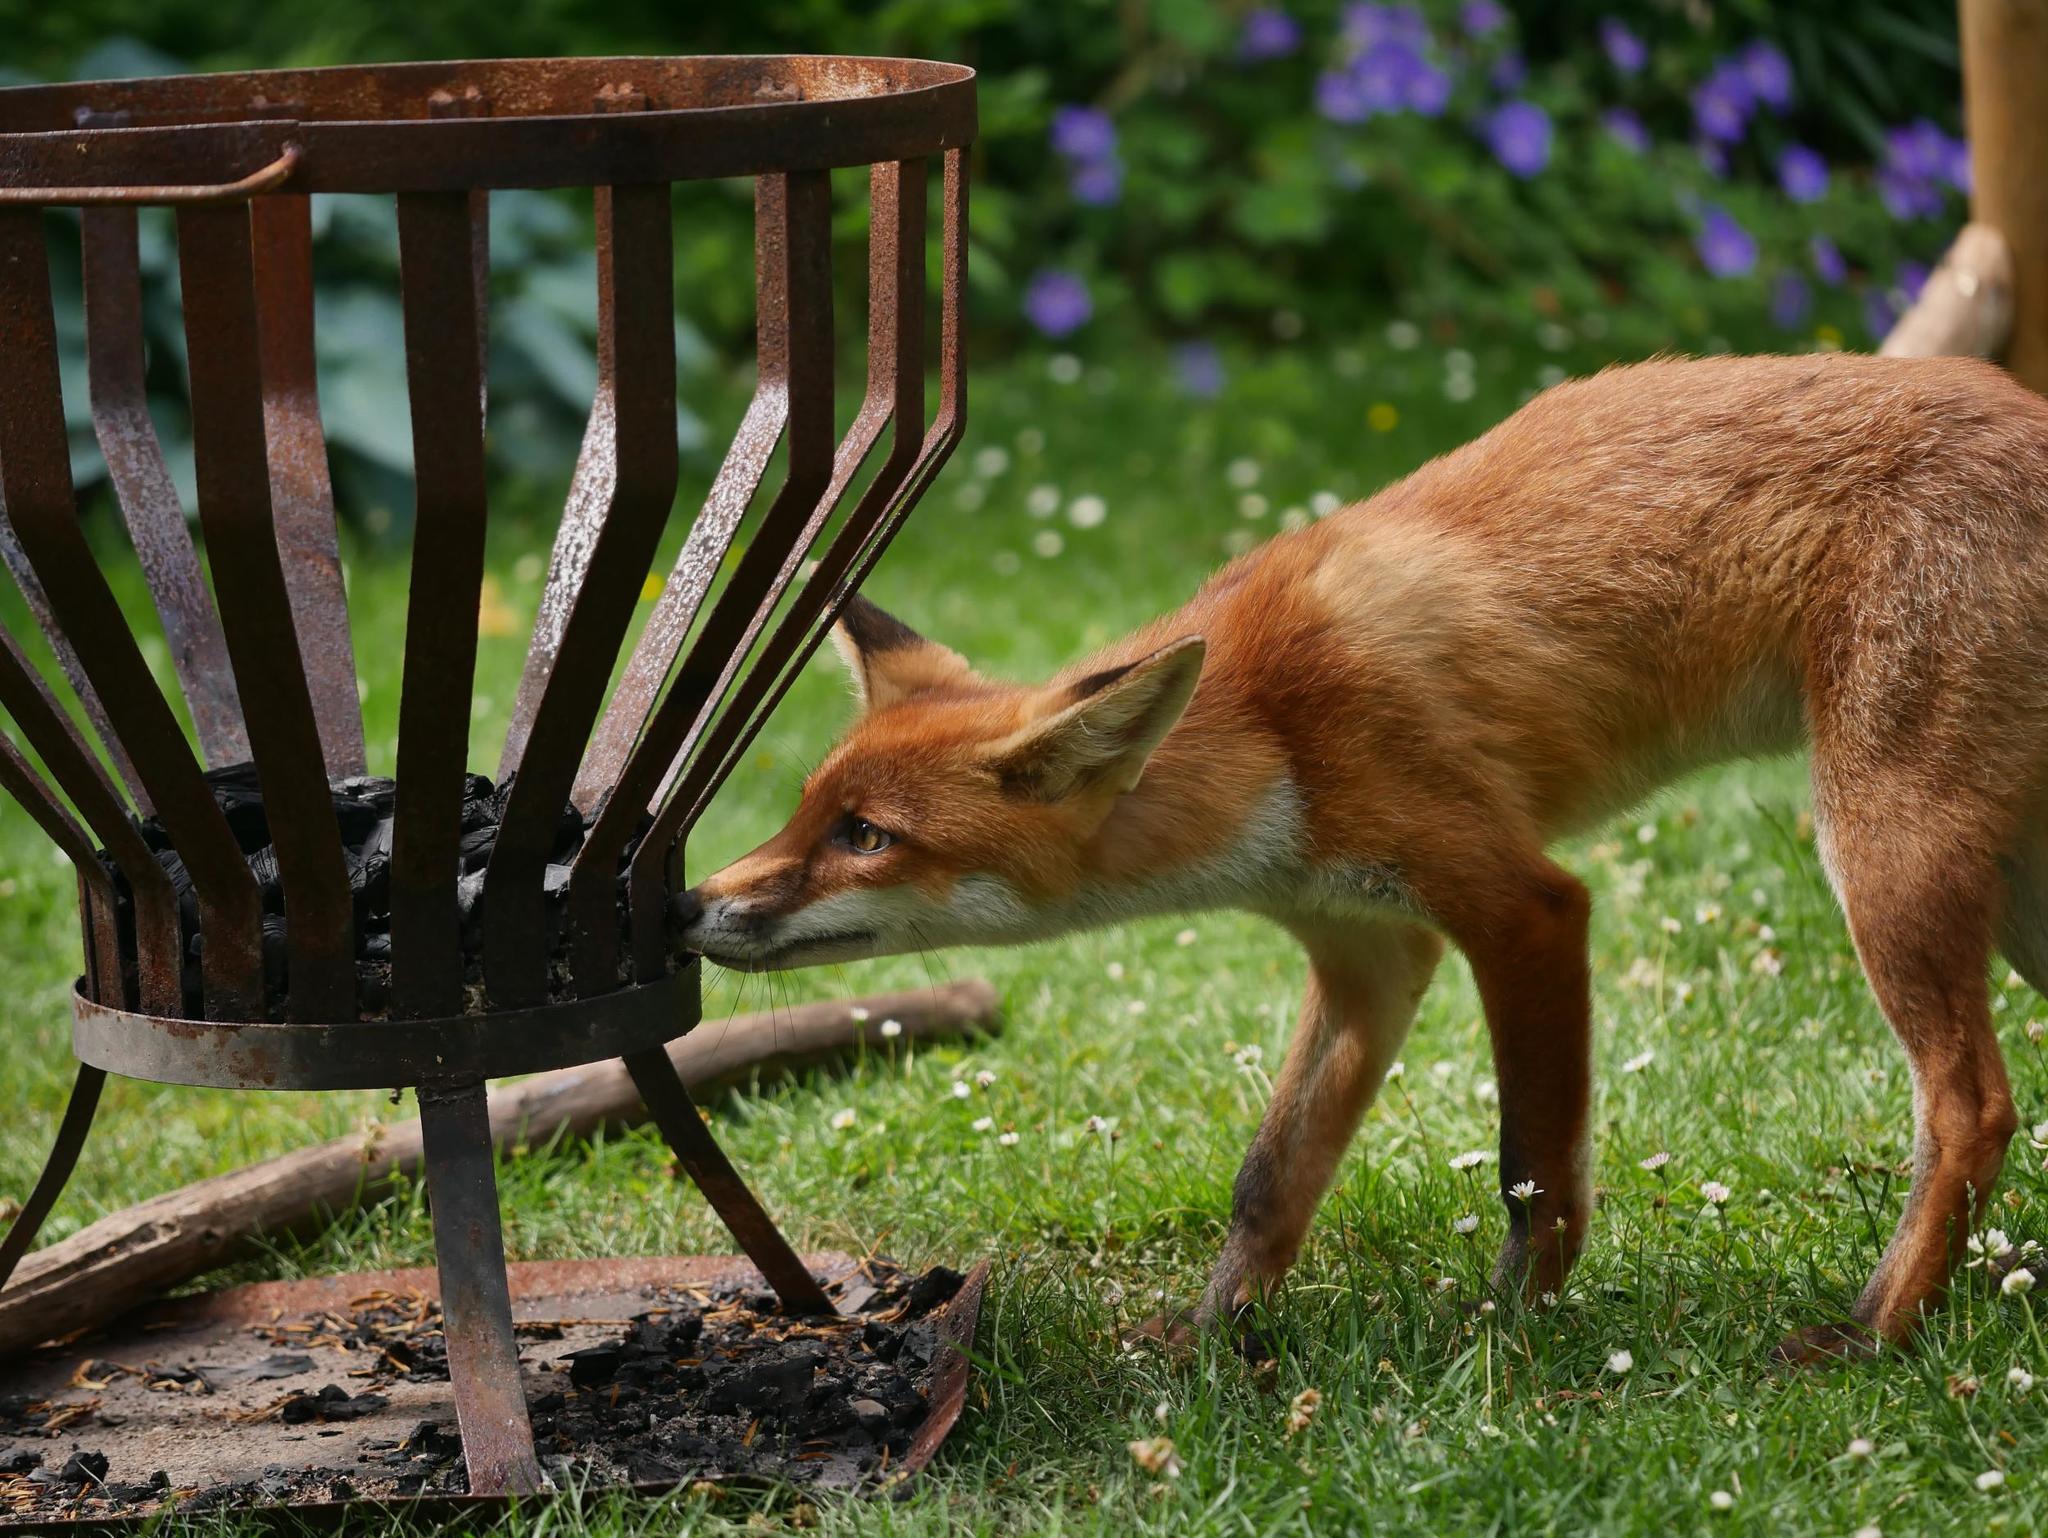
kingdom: Animalia
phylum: Chordata
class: Mammalia
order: Carnivora
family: Canidae
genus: Vulpes
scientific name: Vulpes vulpes
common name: Red fox
